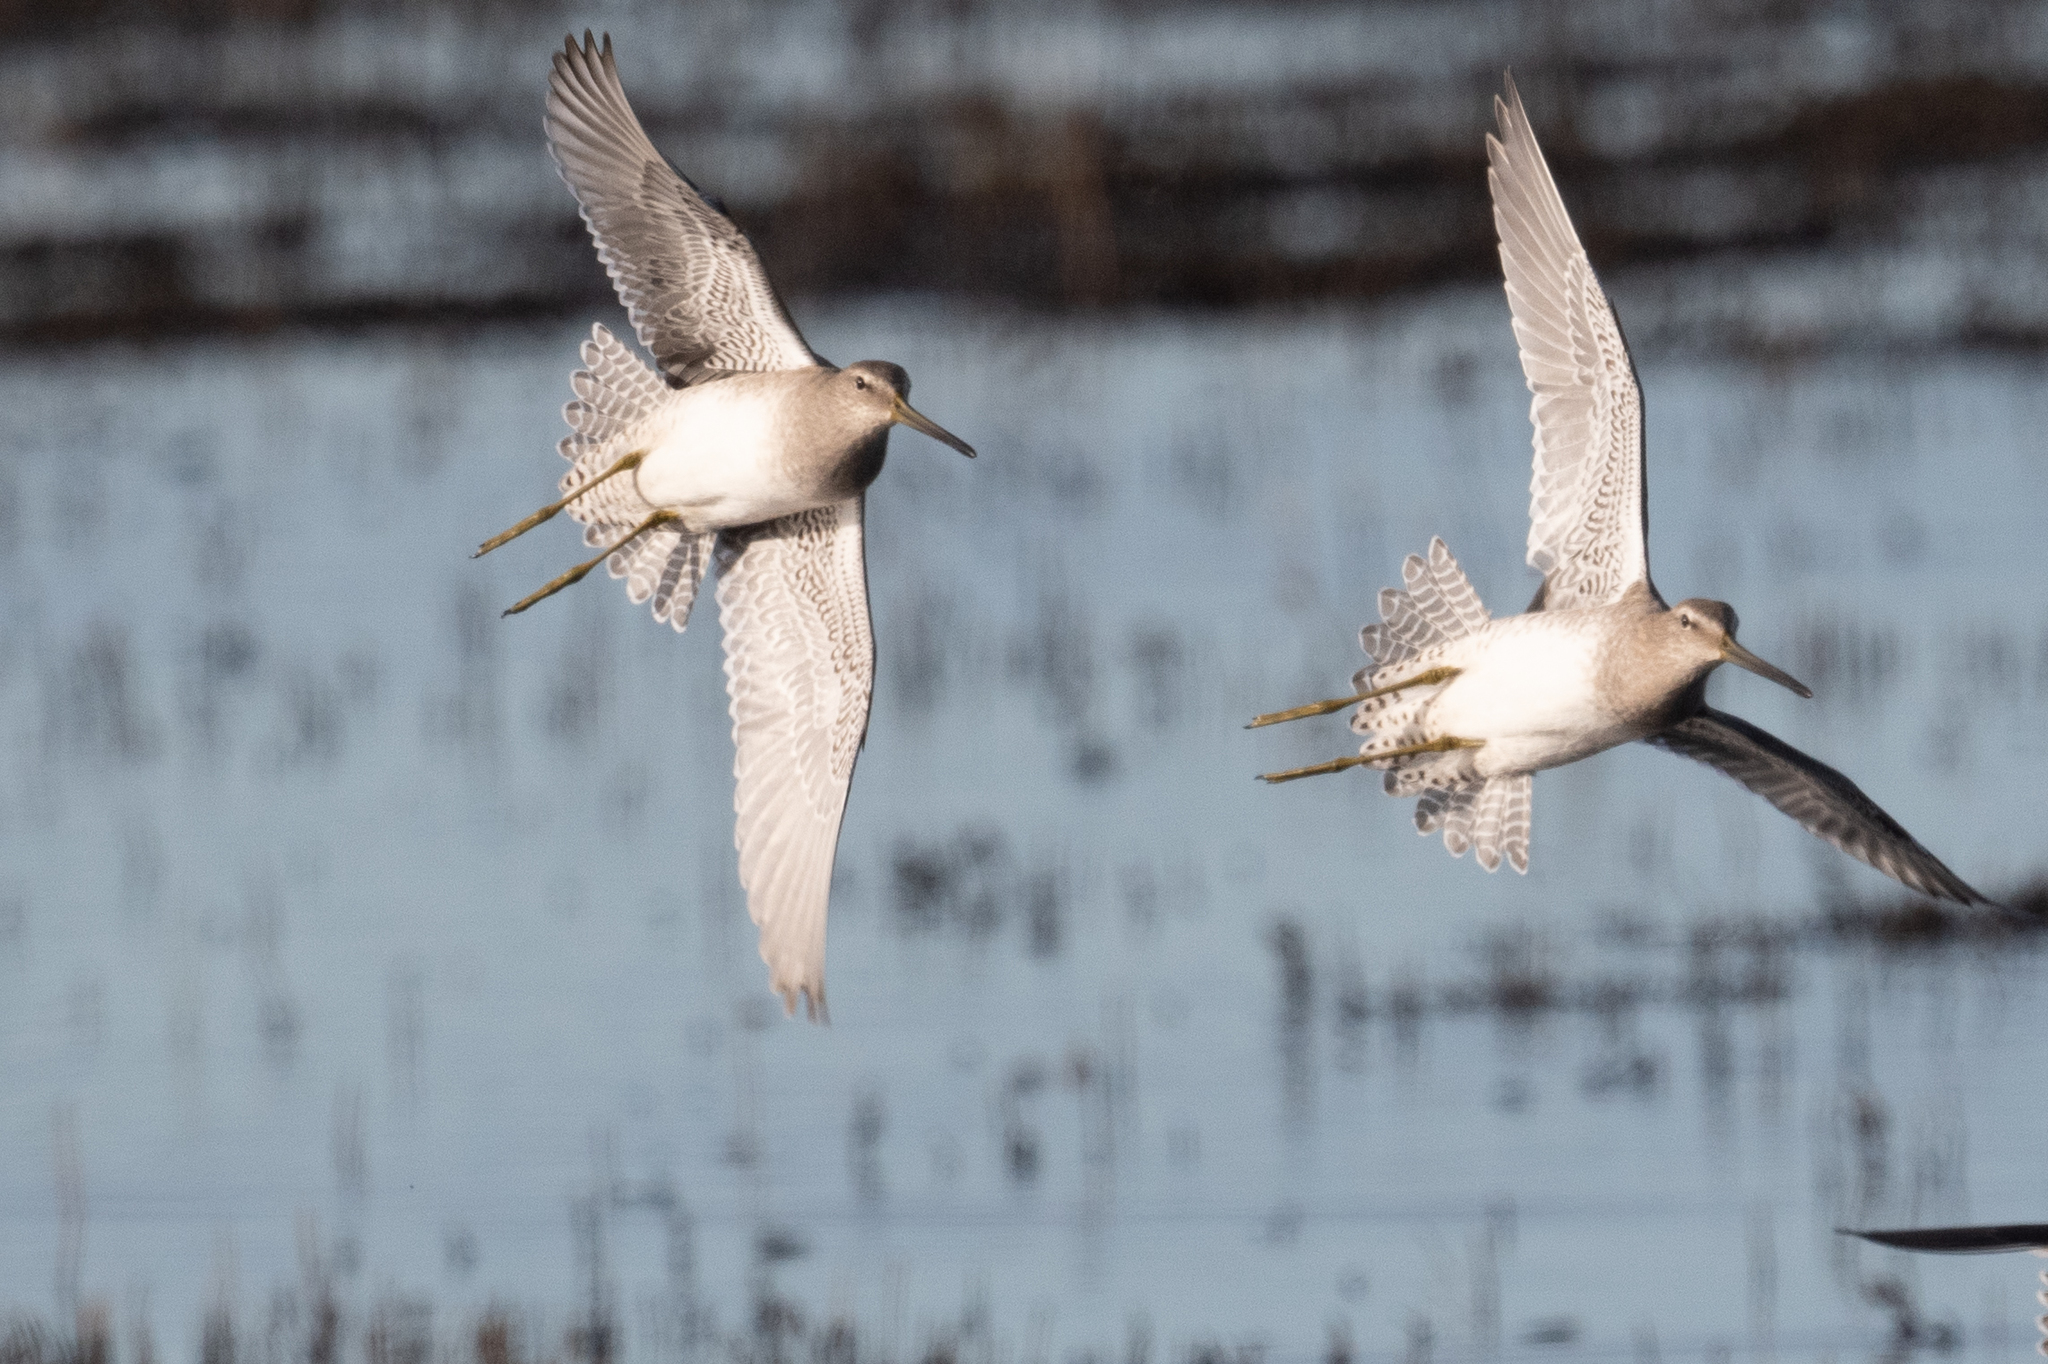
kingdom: Animalia
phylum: Chordata
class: Aves
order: Charadriiformes
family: Scolopacidae
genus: Limnodromus
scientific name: Limnodromus scolopaceus
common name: Long-billed dowitcher
